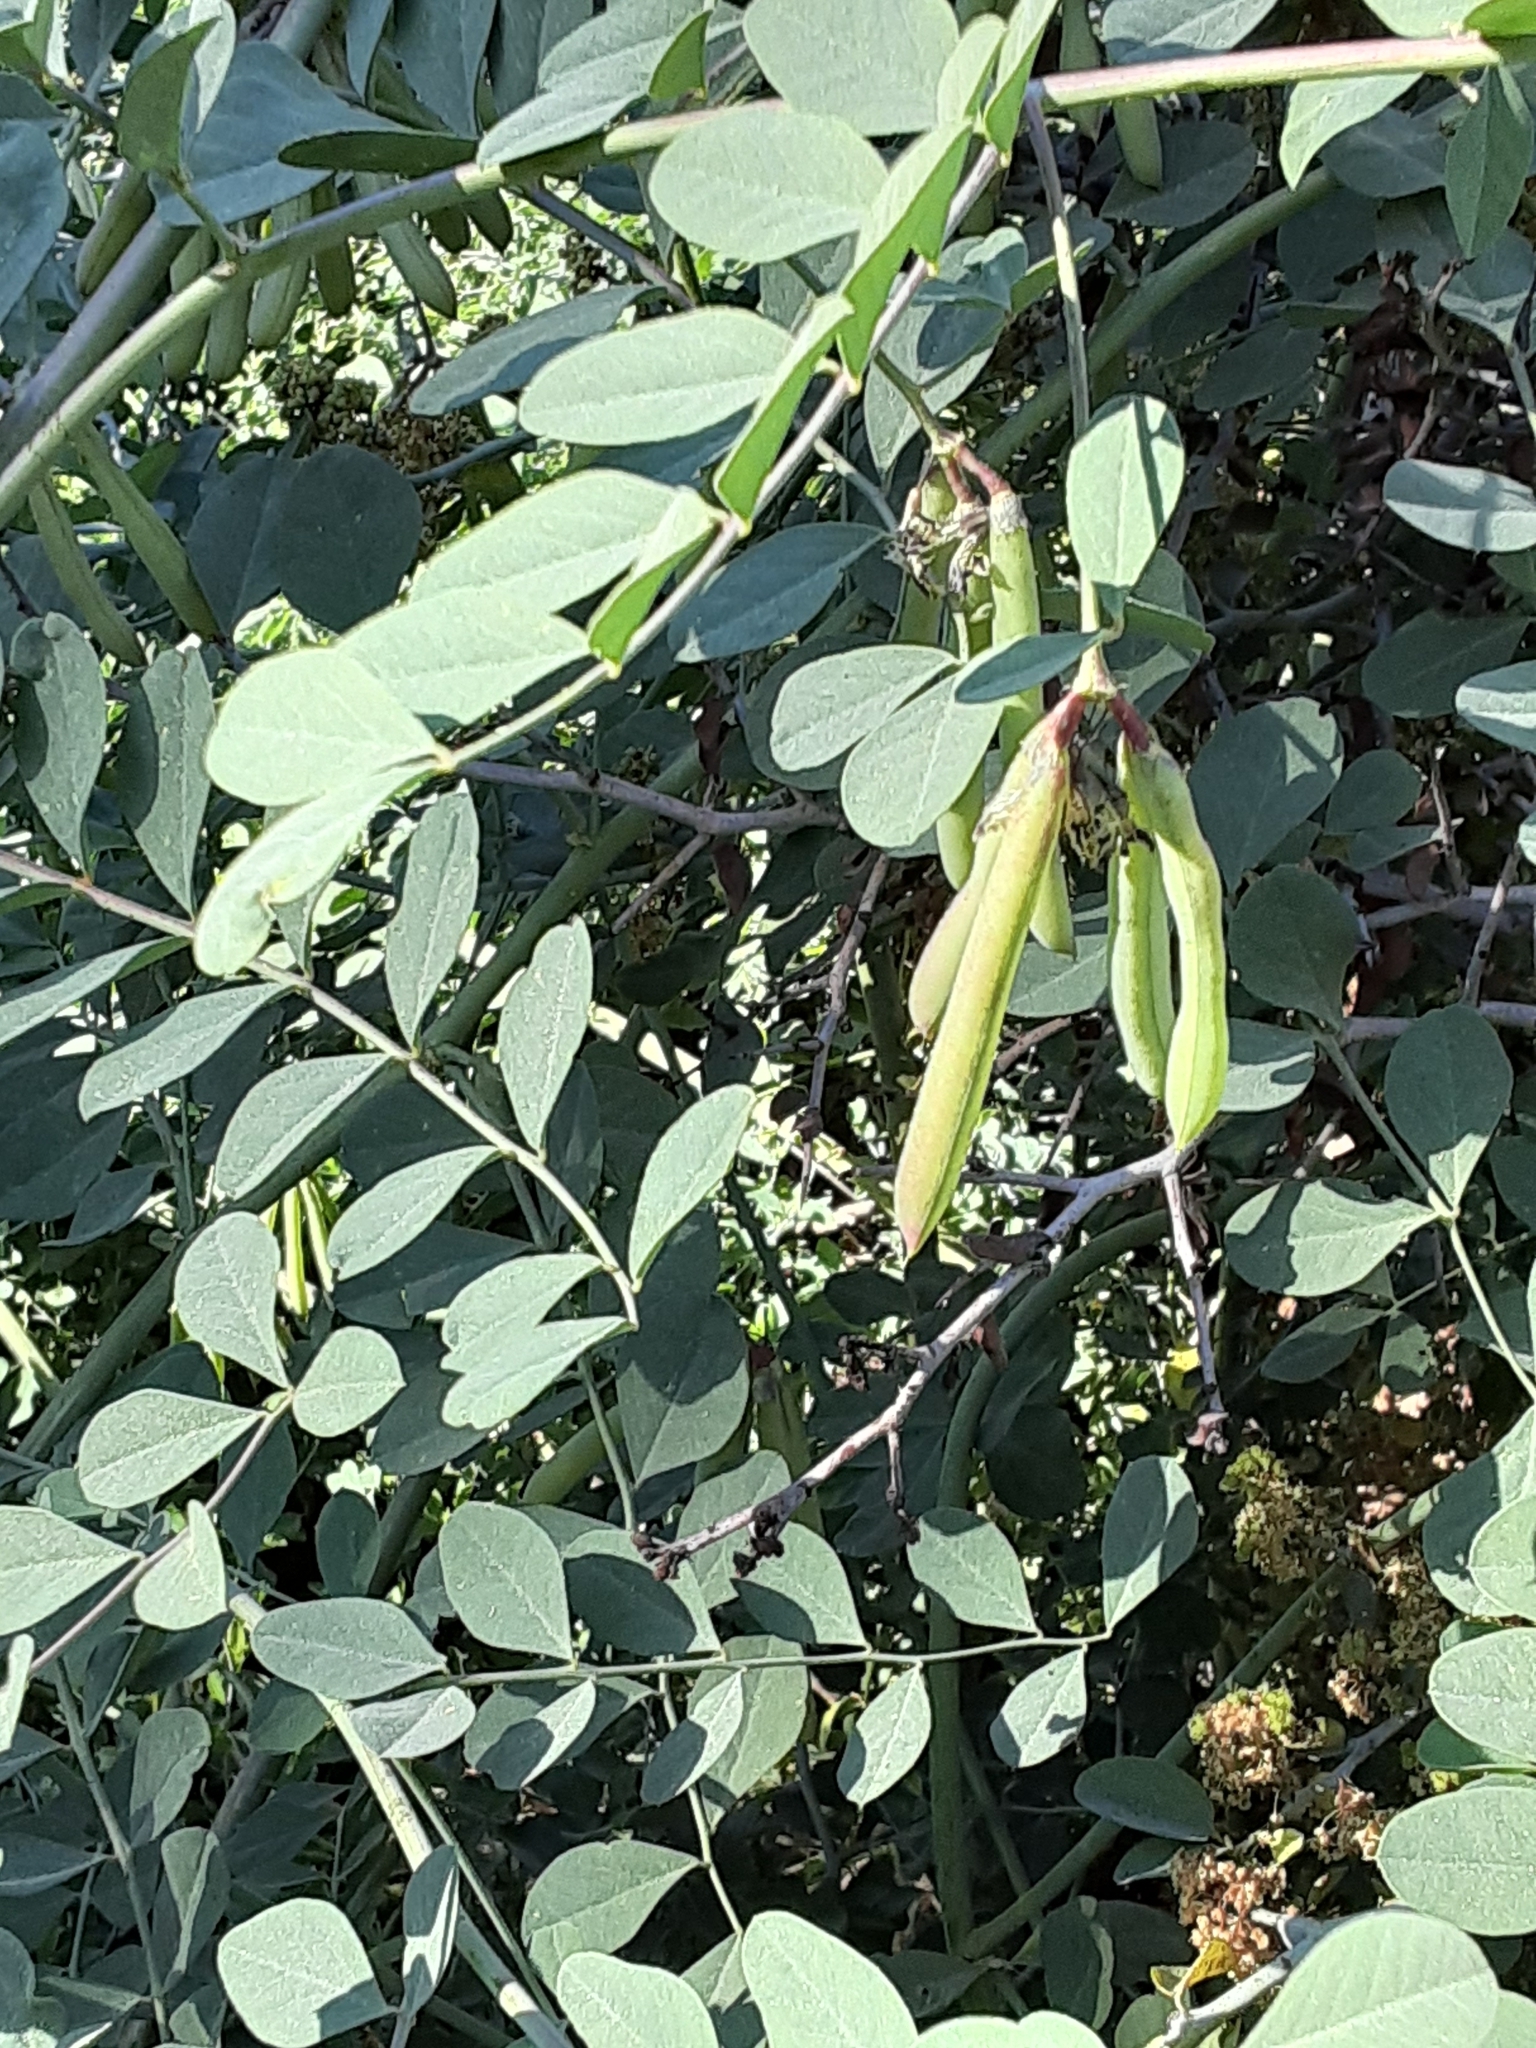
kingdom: Plantae
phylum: Tracheophyta
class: Magnoliopsida
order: Fabales
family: Fabaceae
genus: Hosackia
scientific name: Hosackia crassifolia
